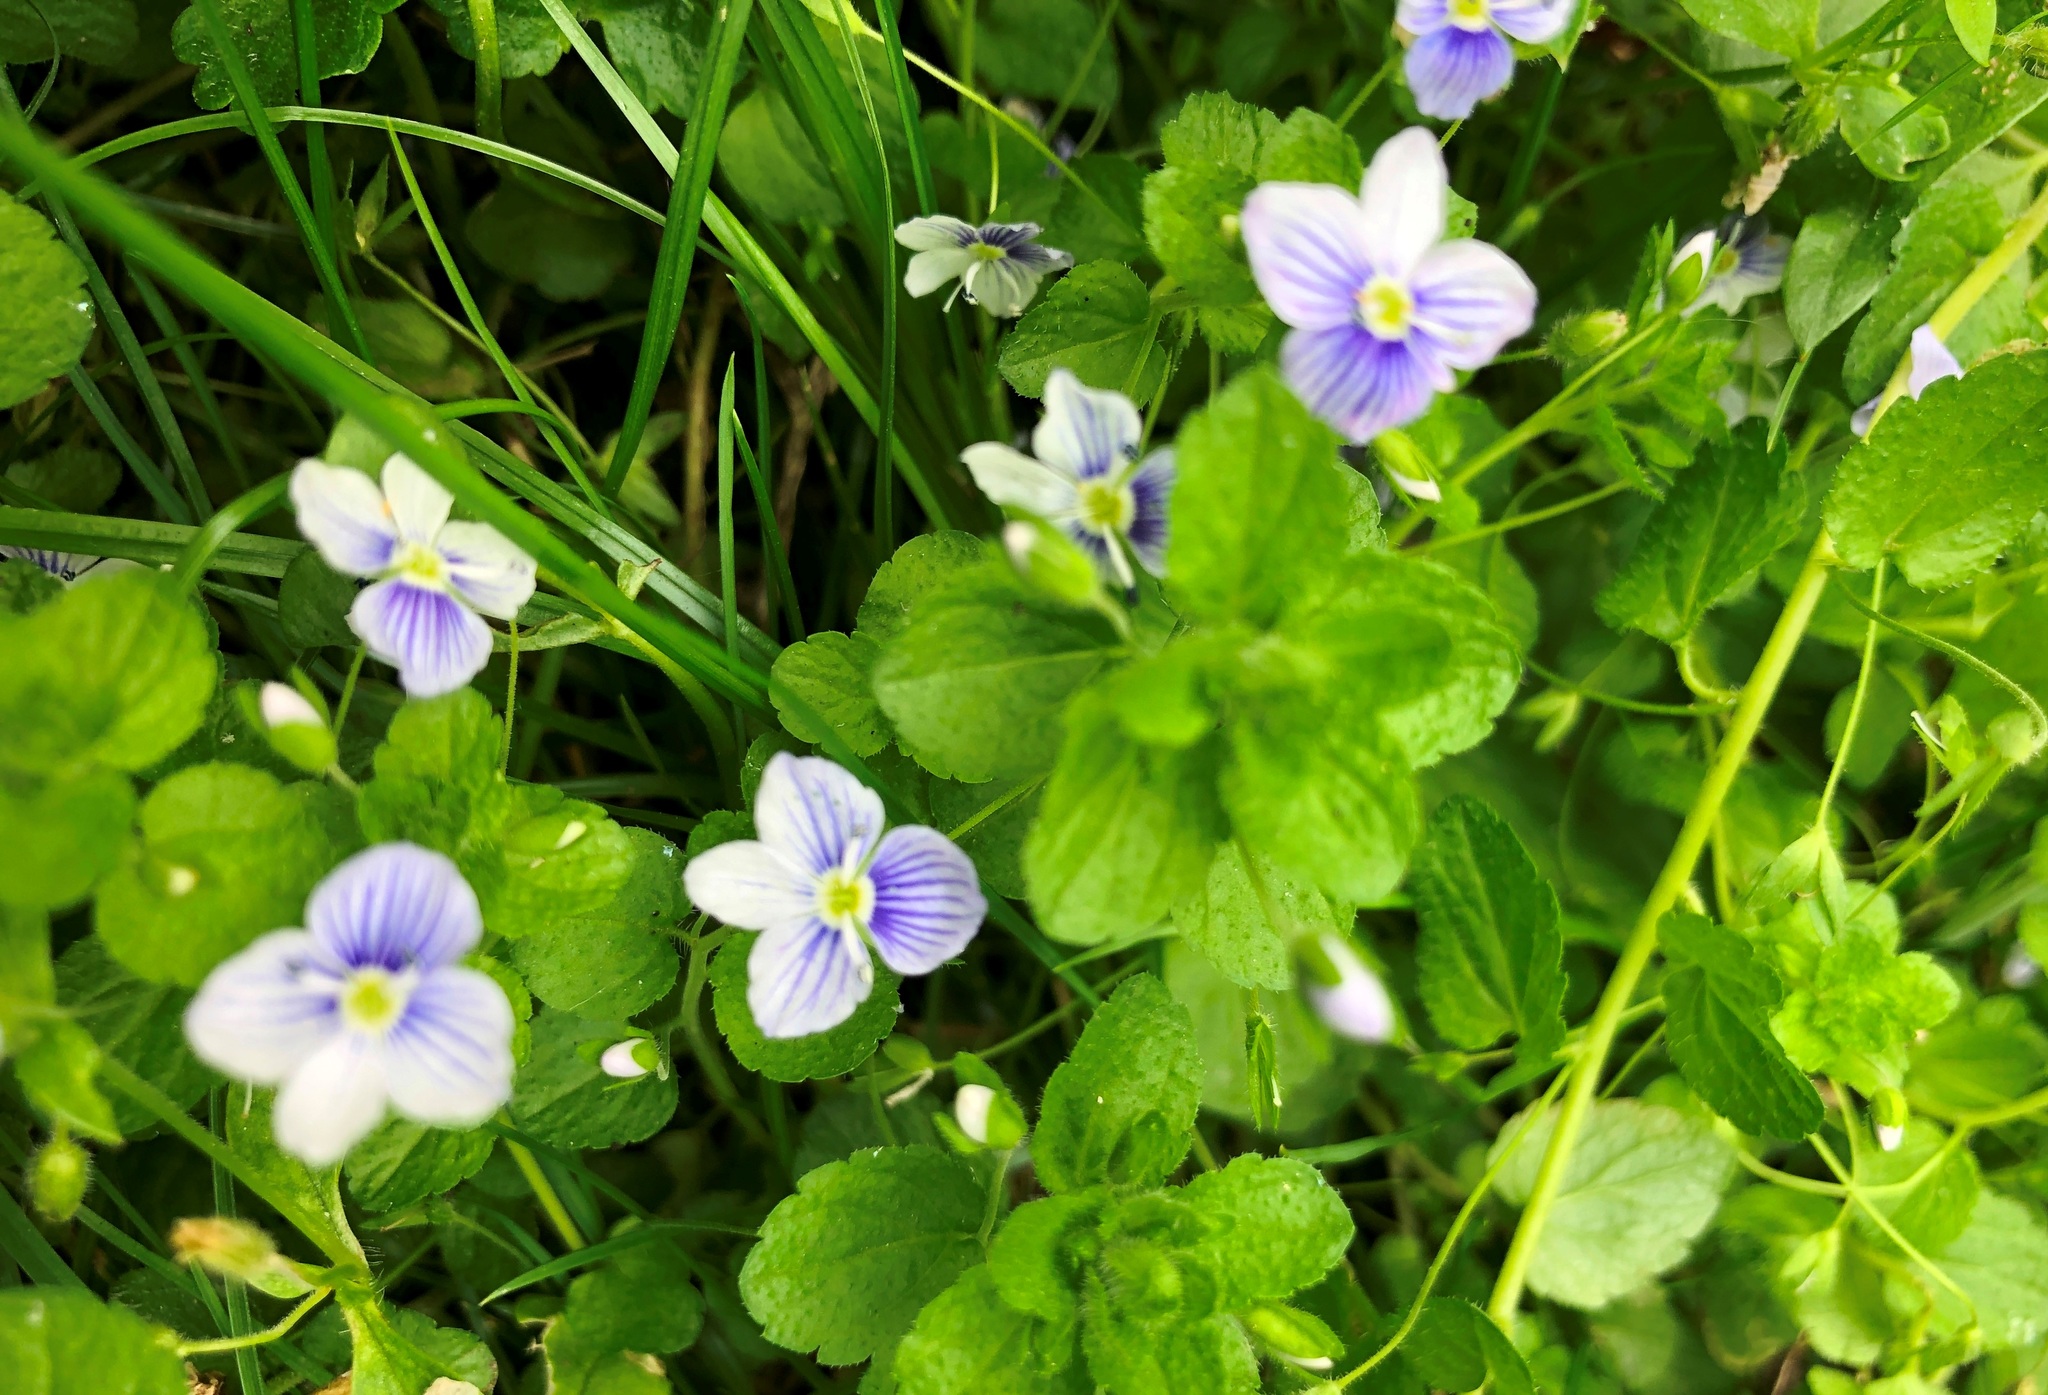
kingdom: Plantae
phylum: Tracheophyta
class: Magnoliopsida
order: Lamiales
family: Plantaginaceae
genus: Veronica
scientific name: Veronica filiformis
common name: Slender speedwell
